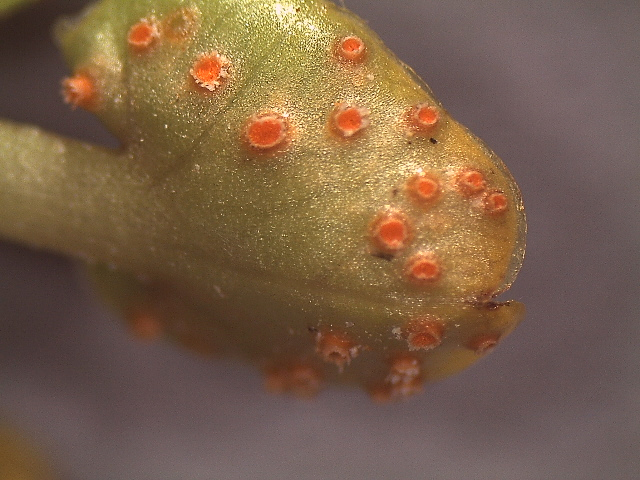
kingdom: Fungi
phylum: Basidiomycota
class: Pucciniomycetes
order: Pucciniales
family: Pucciniaceae
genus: Aecidium
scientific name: Aecidium westlandicum
